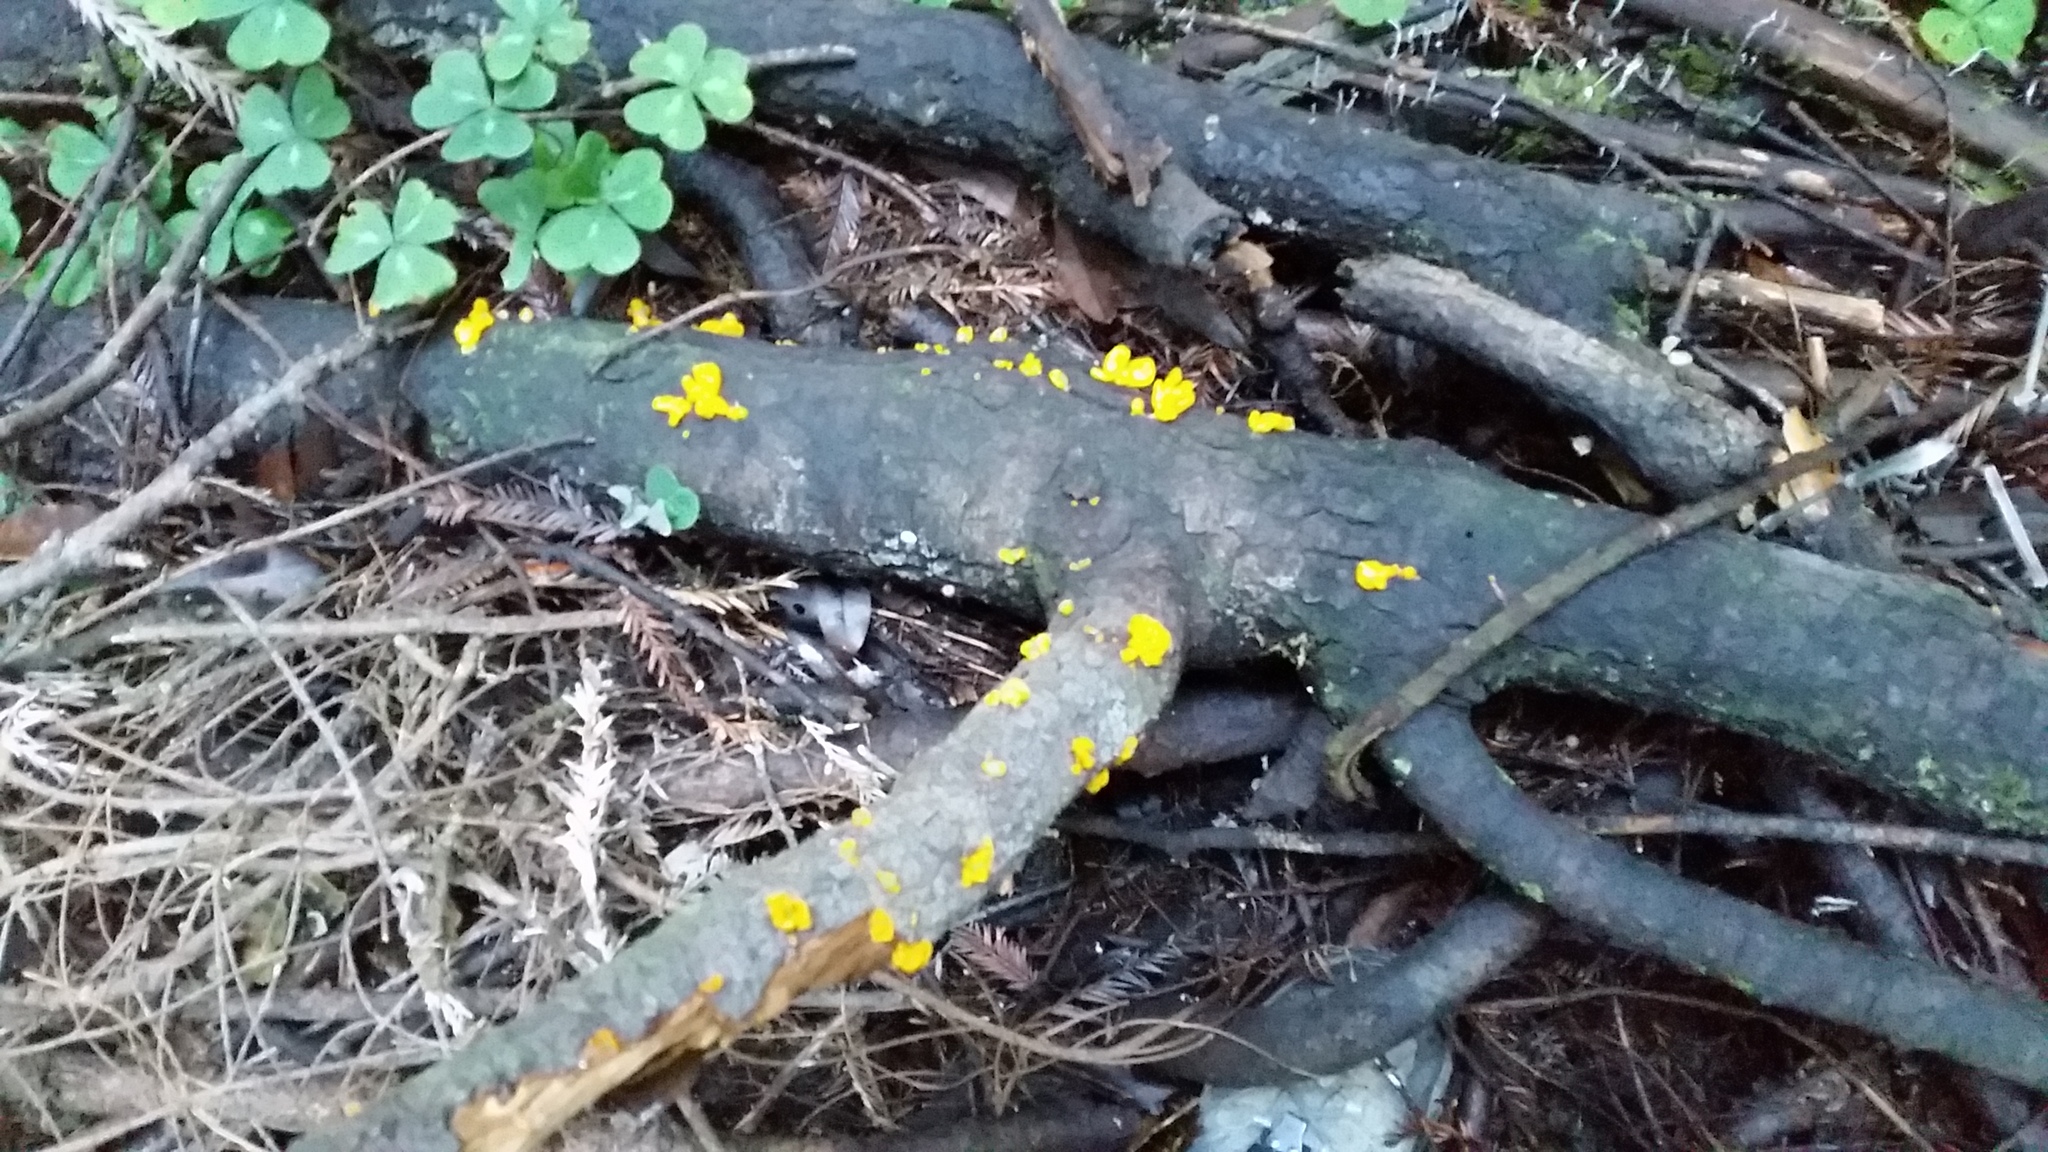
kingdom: Fungi
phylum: Basidiomycota
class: Dacrymycetes
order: Dacrymycetales
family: Dacrymycetaceae
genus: Dacrymyces
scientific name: Dacrymyces chrysospermus
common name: Orange jelly spot
